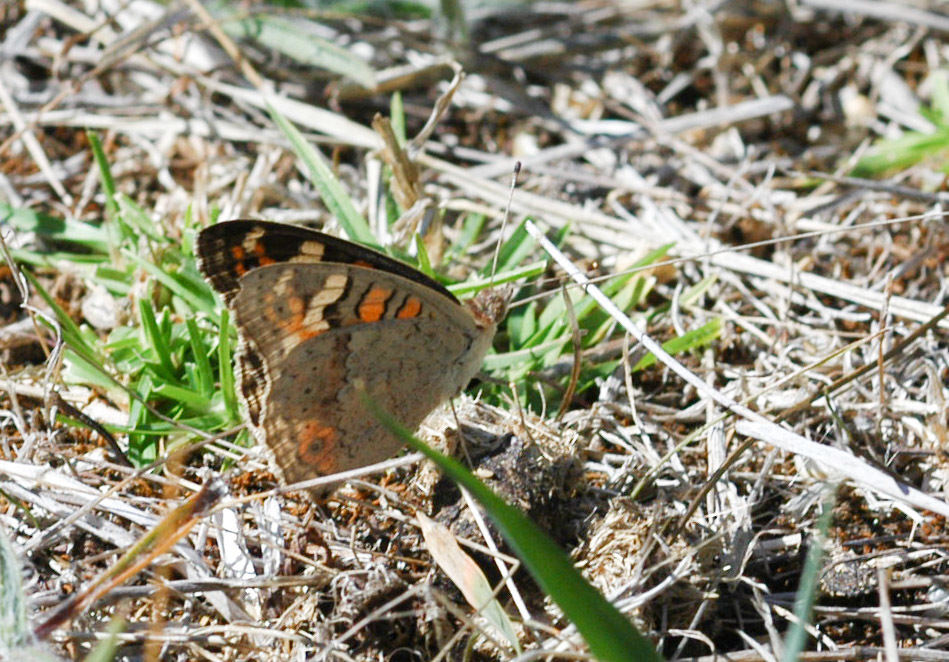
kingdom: Animalia
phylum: Arthropoda
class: Insecta
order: Lepidoptera
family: Nymphalidae
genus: Junonia
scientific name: Junonia villida
